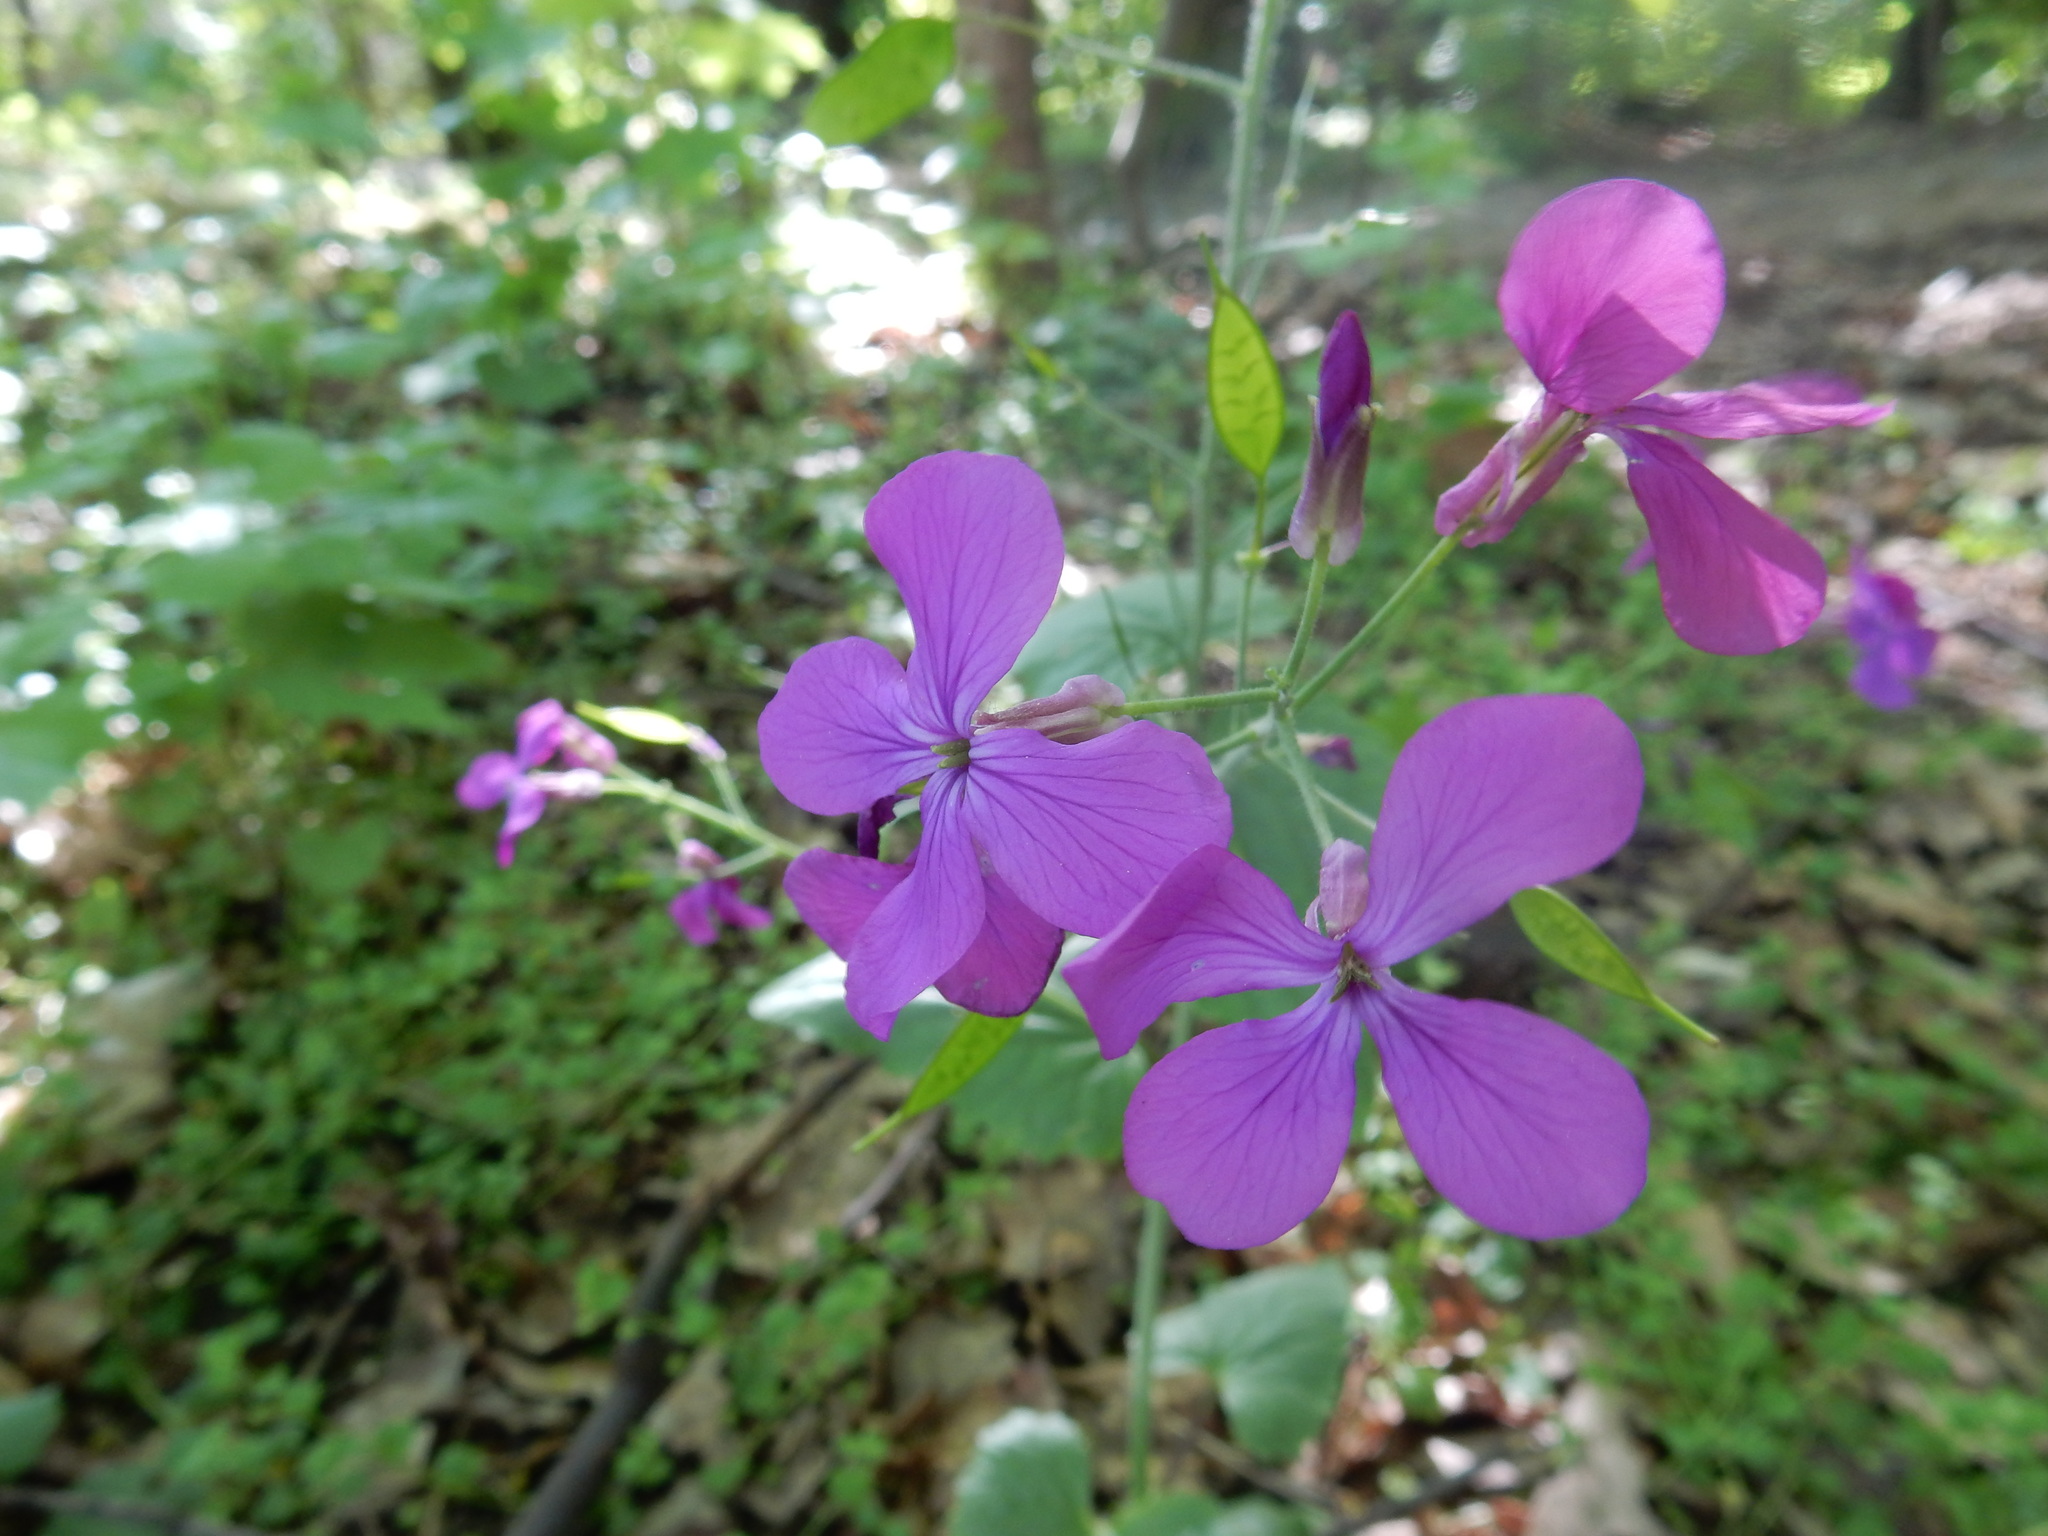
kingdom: Plantae
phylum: Tracheophyta
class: Magnoliopsida
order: Brassicales
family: Brassicaceae
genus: Lunaria
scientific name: Lunaria annua
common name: Honesty
